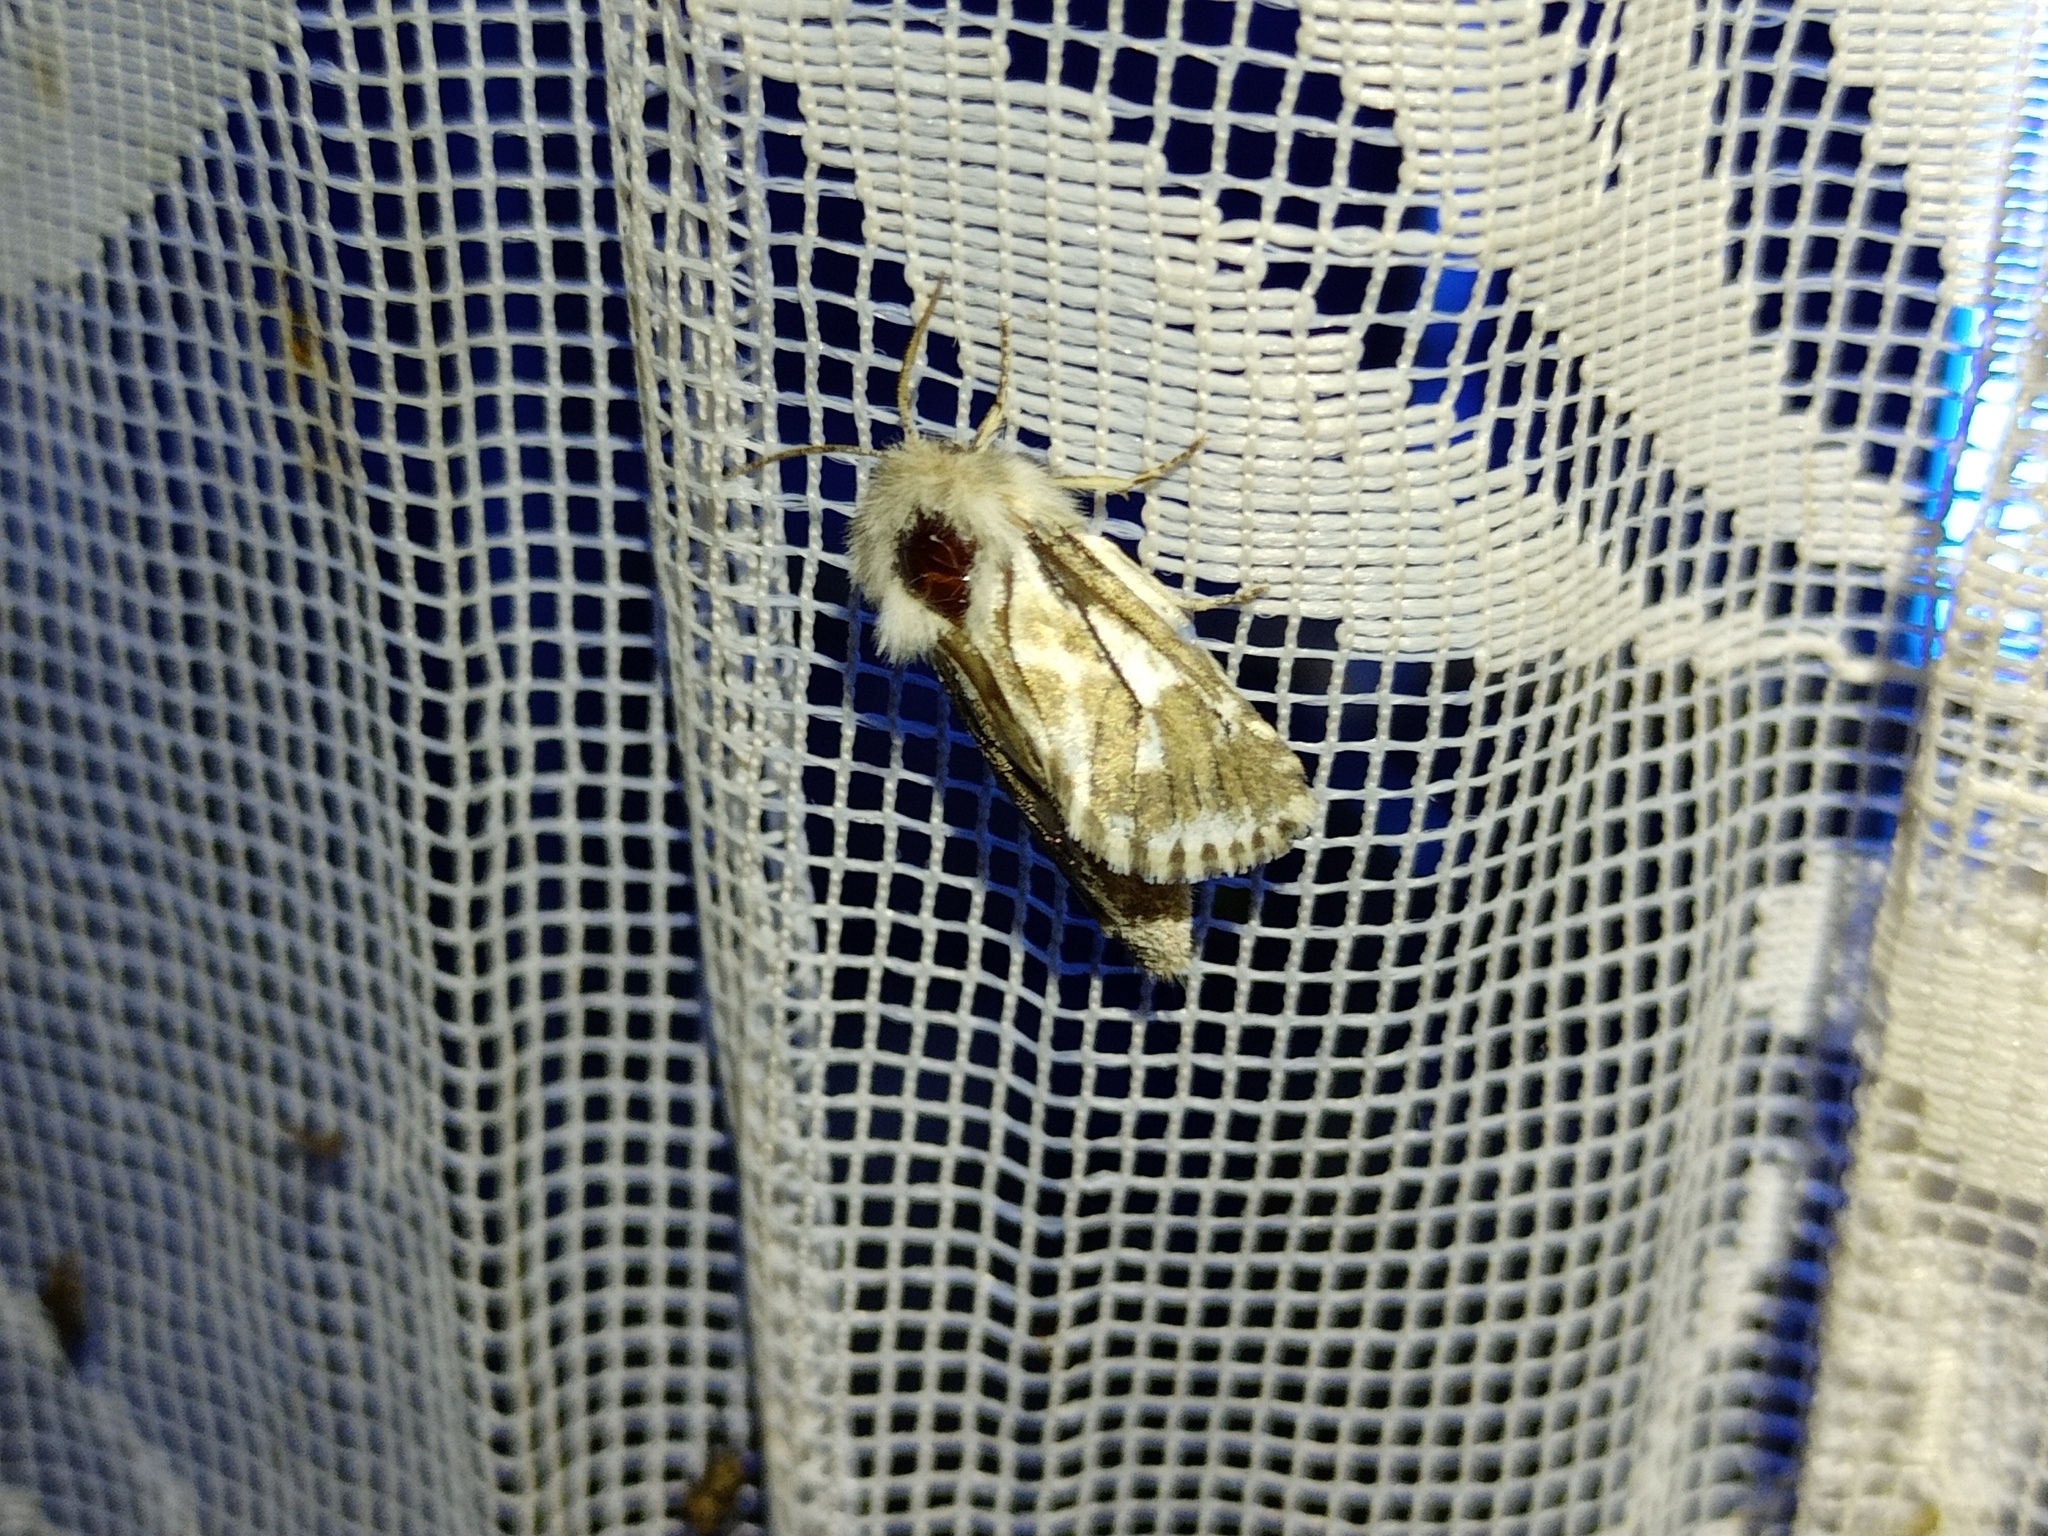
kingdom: Animalia
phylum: Arthropoda
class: Insecta
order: Lepidoptera
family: Cossidae
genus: Dyspessa
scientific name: Dyspessa ulula
